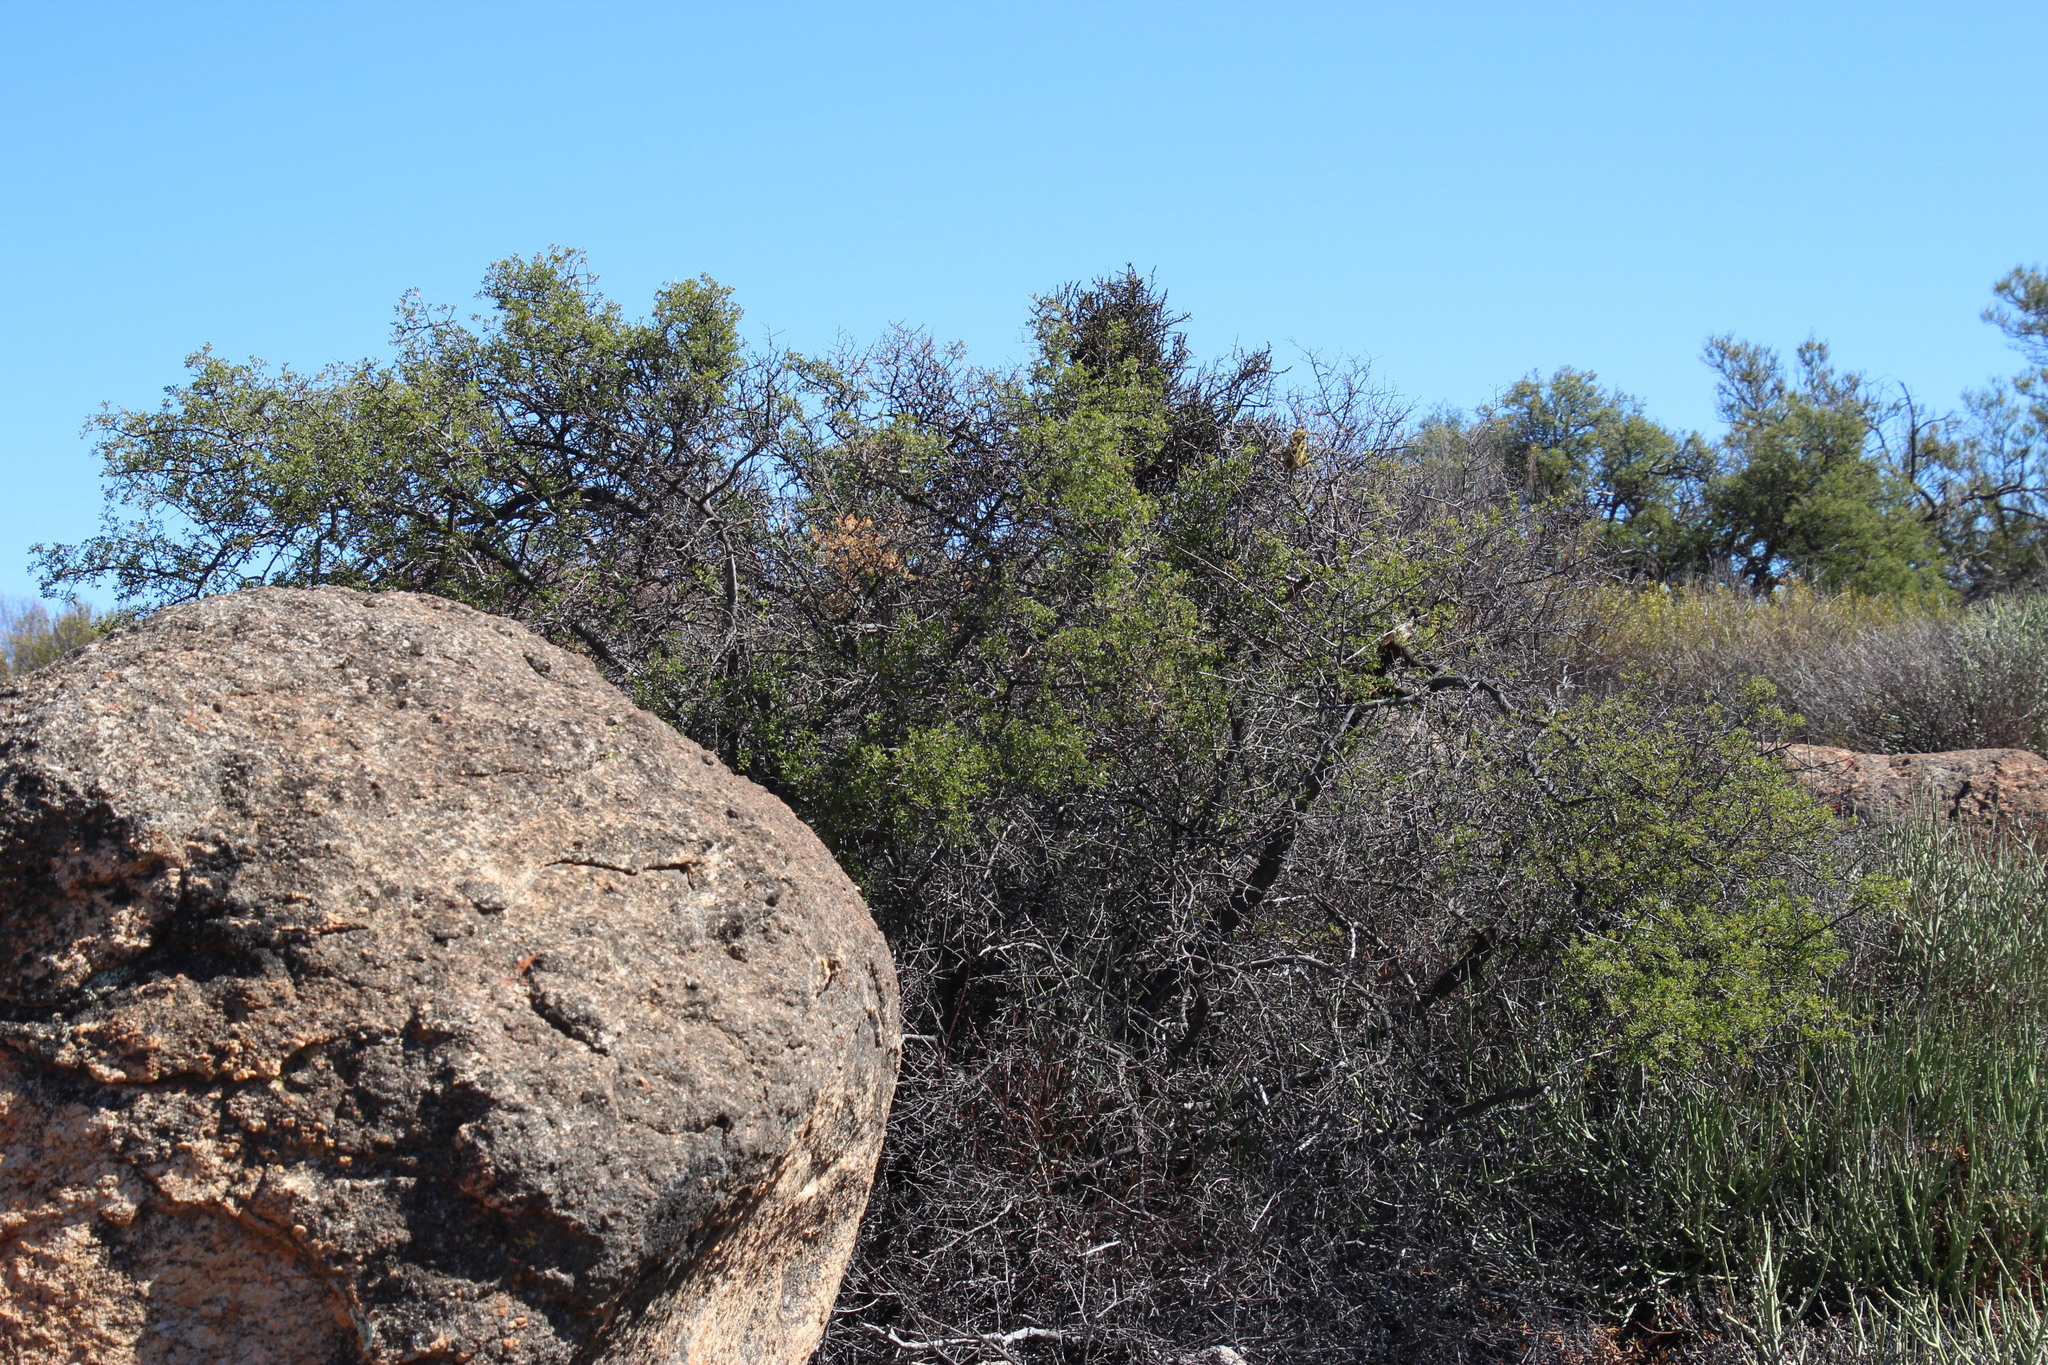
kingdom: Plantae
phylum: Tracheophyta
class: Magnoliopsida
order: Santalales
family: Viscaceae
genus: Viscum
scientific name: Viscum capense
